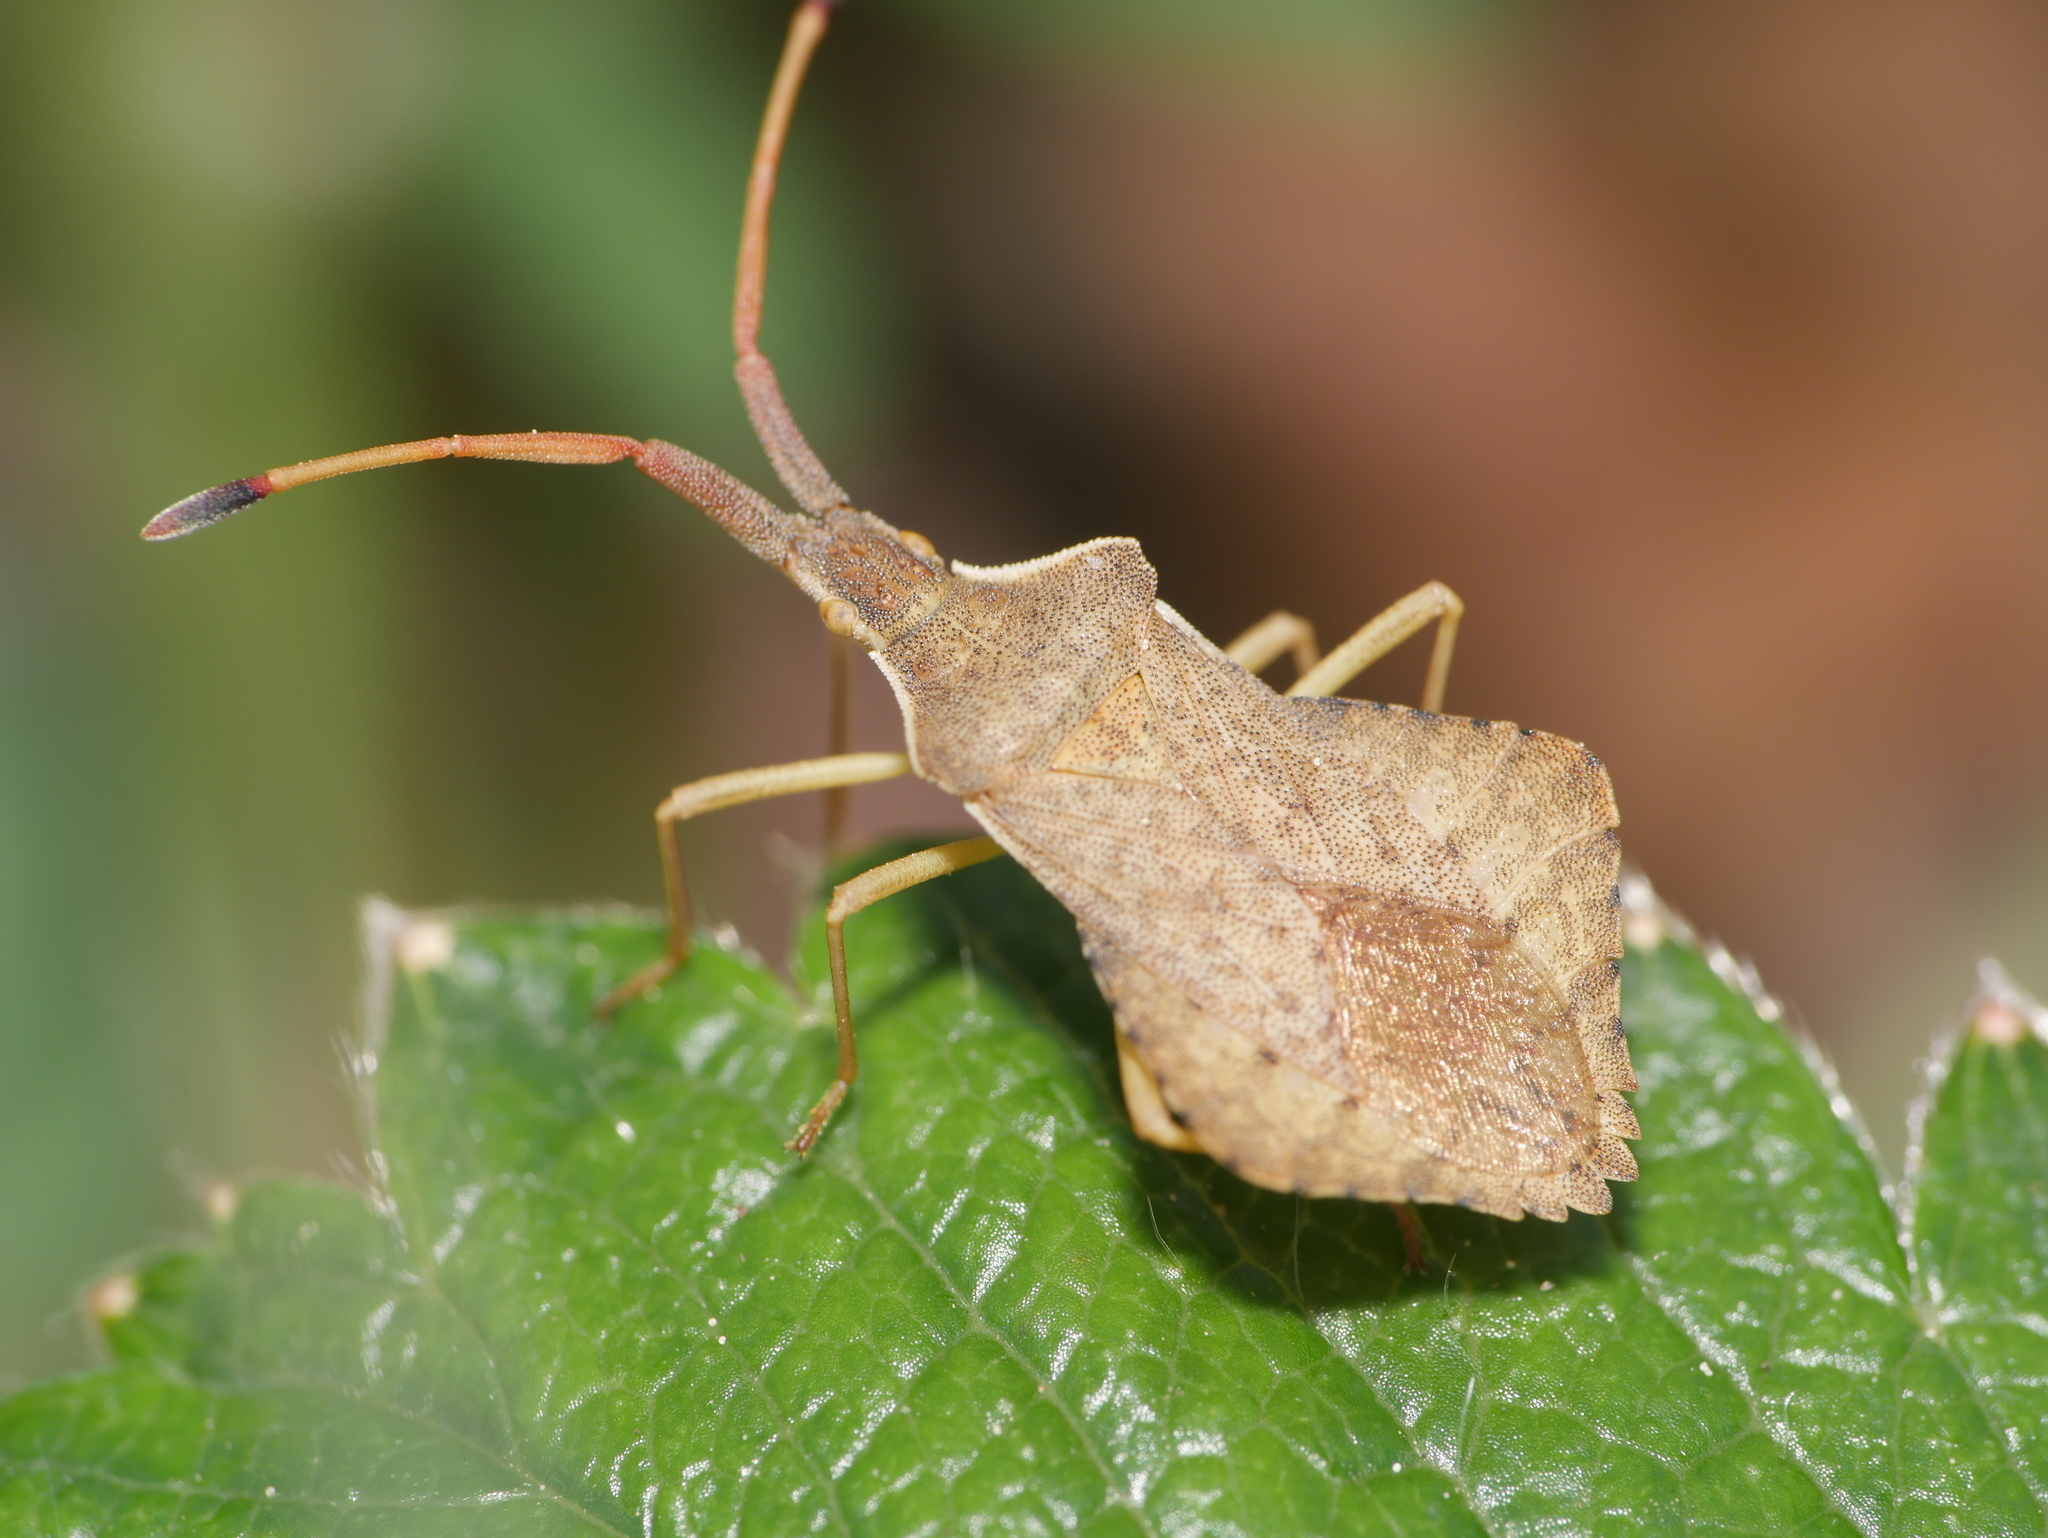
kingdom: Animalia
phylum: Arthropoda
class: Insecta
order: Hemiptera
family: Coreidae
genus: Syromastus
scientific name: Syromastus rhombeus
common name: Rhombic leatherbug
